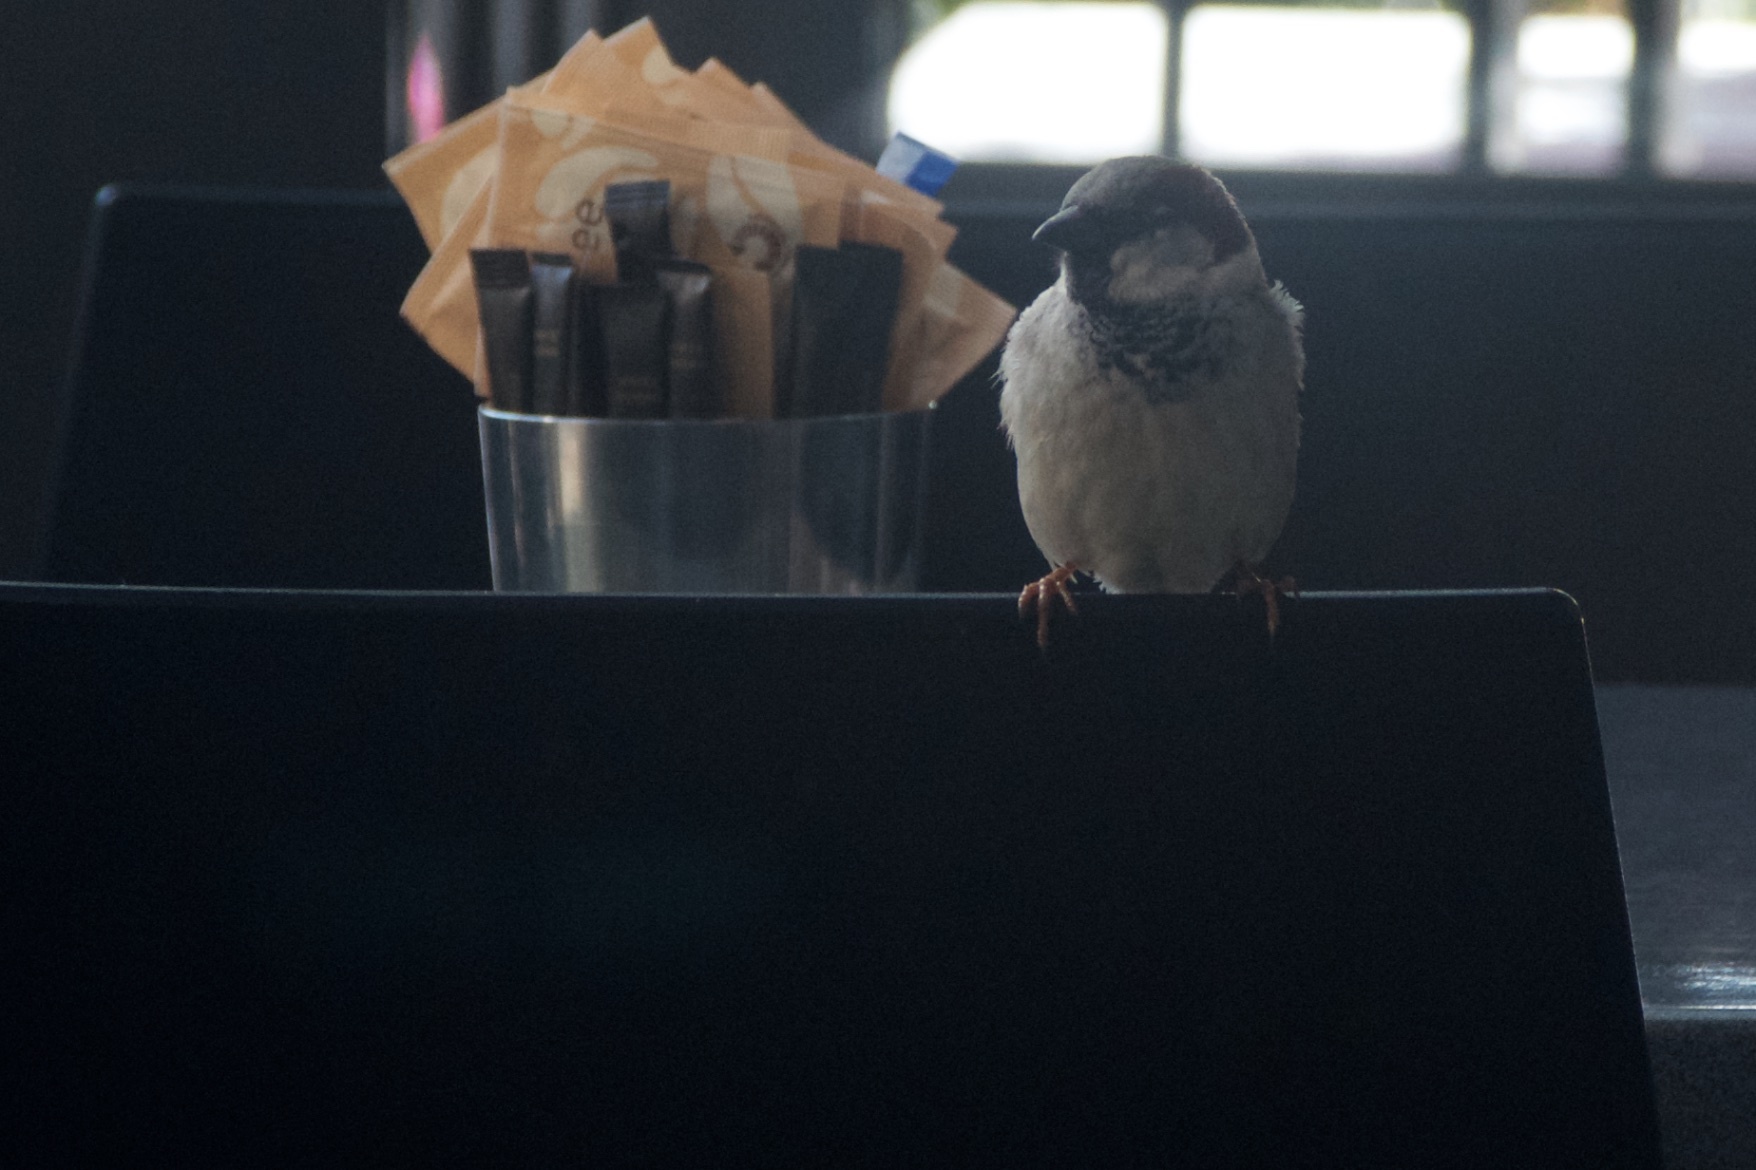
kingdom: Animalia
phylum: Chordata
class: Aves
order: Passeriformes
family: Passeridae
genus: Passer
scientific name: Passer domesticus
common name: House sparrow
